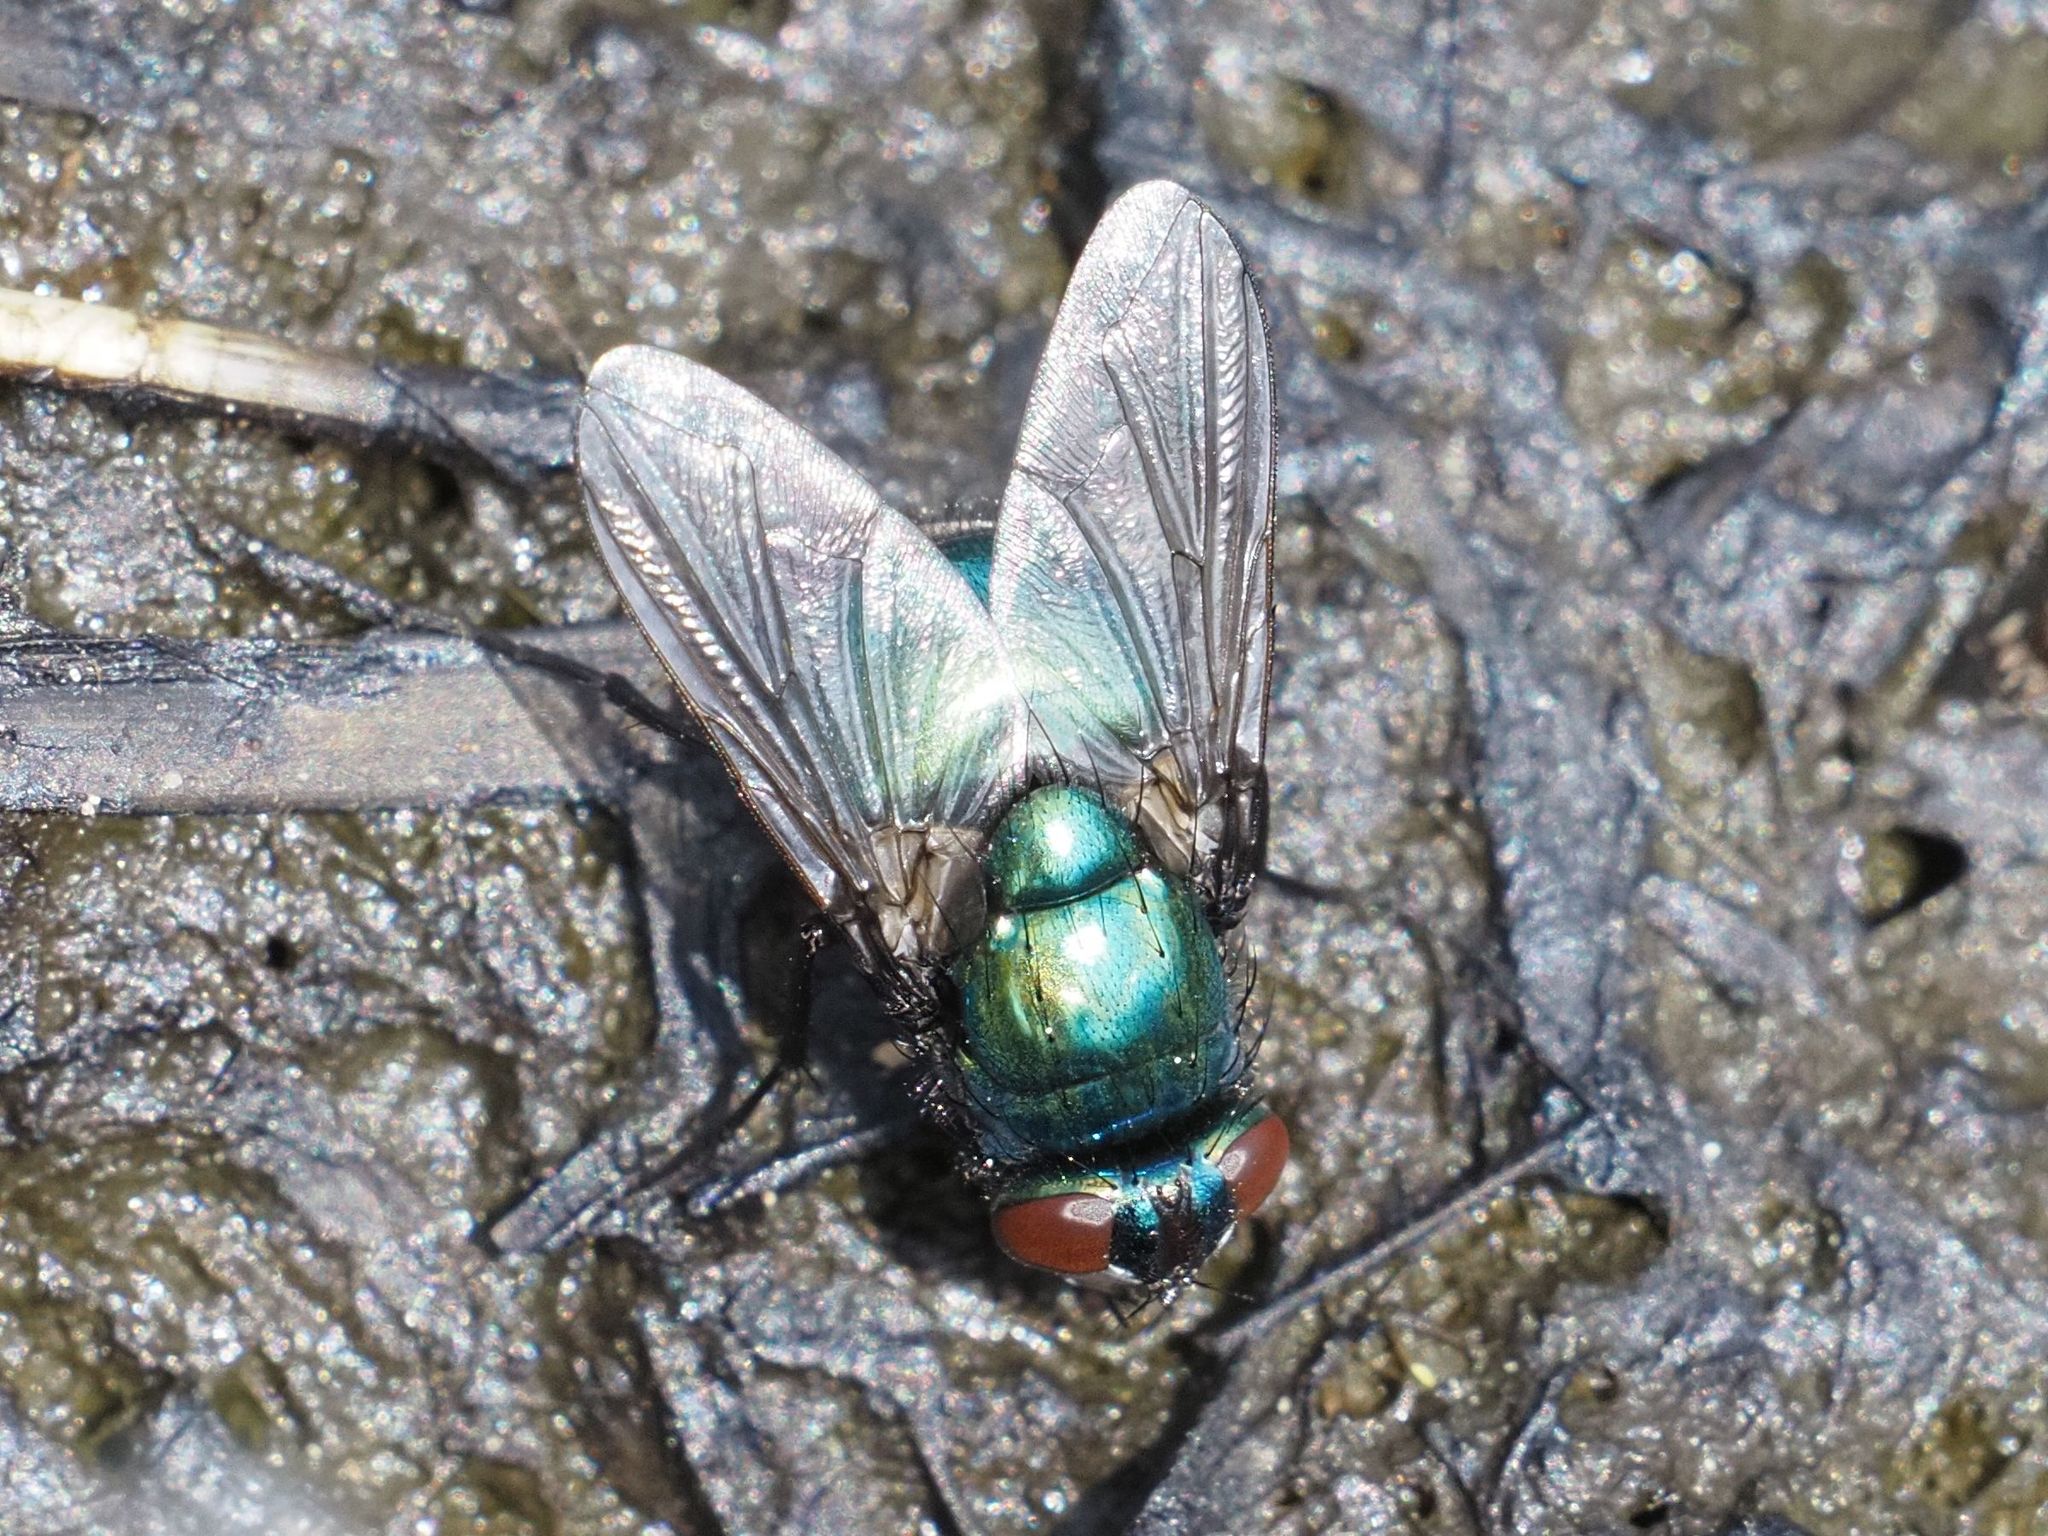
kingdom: Animalia
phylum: Arthropoda
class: Insecta
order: Diptera
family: Muscidae
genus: Neomyia
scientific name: Neomyia cornicina
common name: House fly
